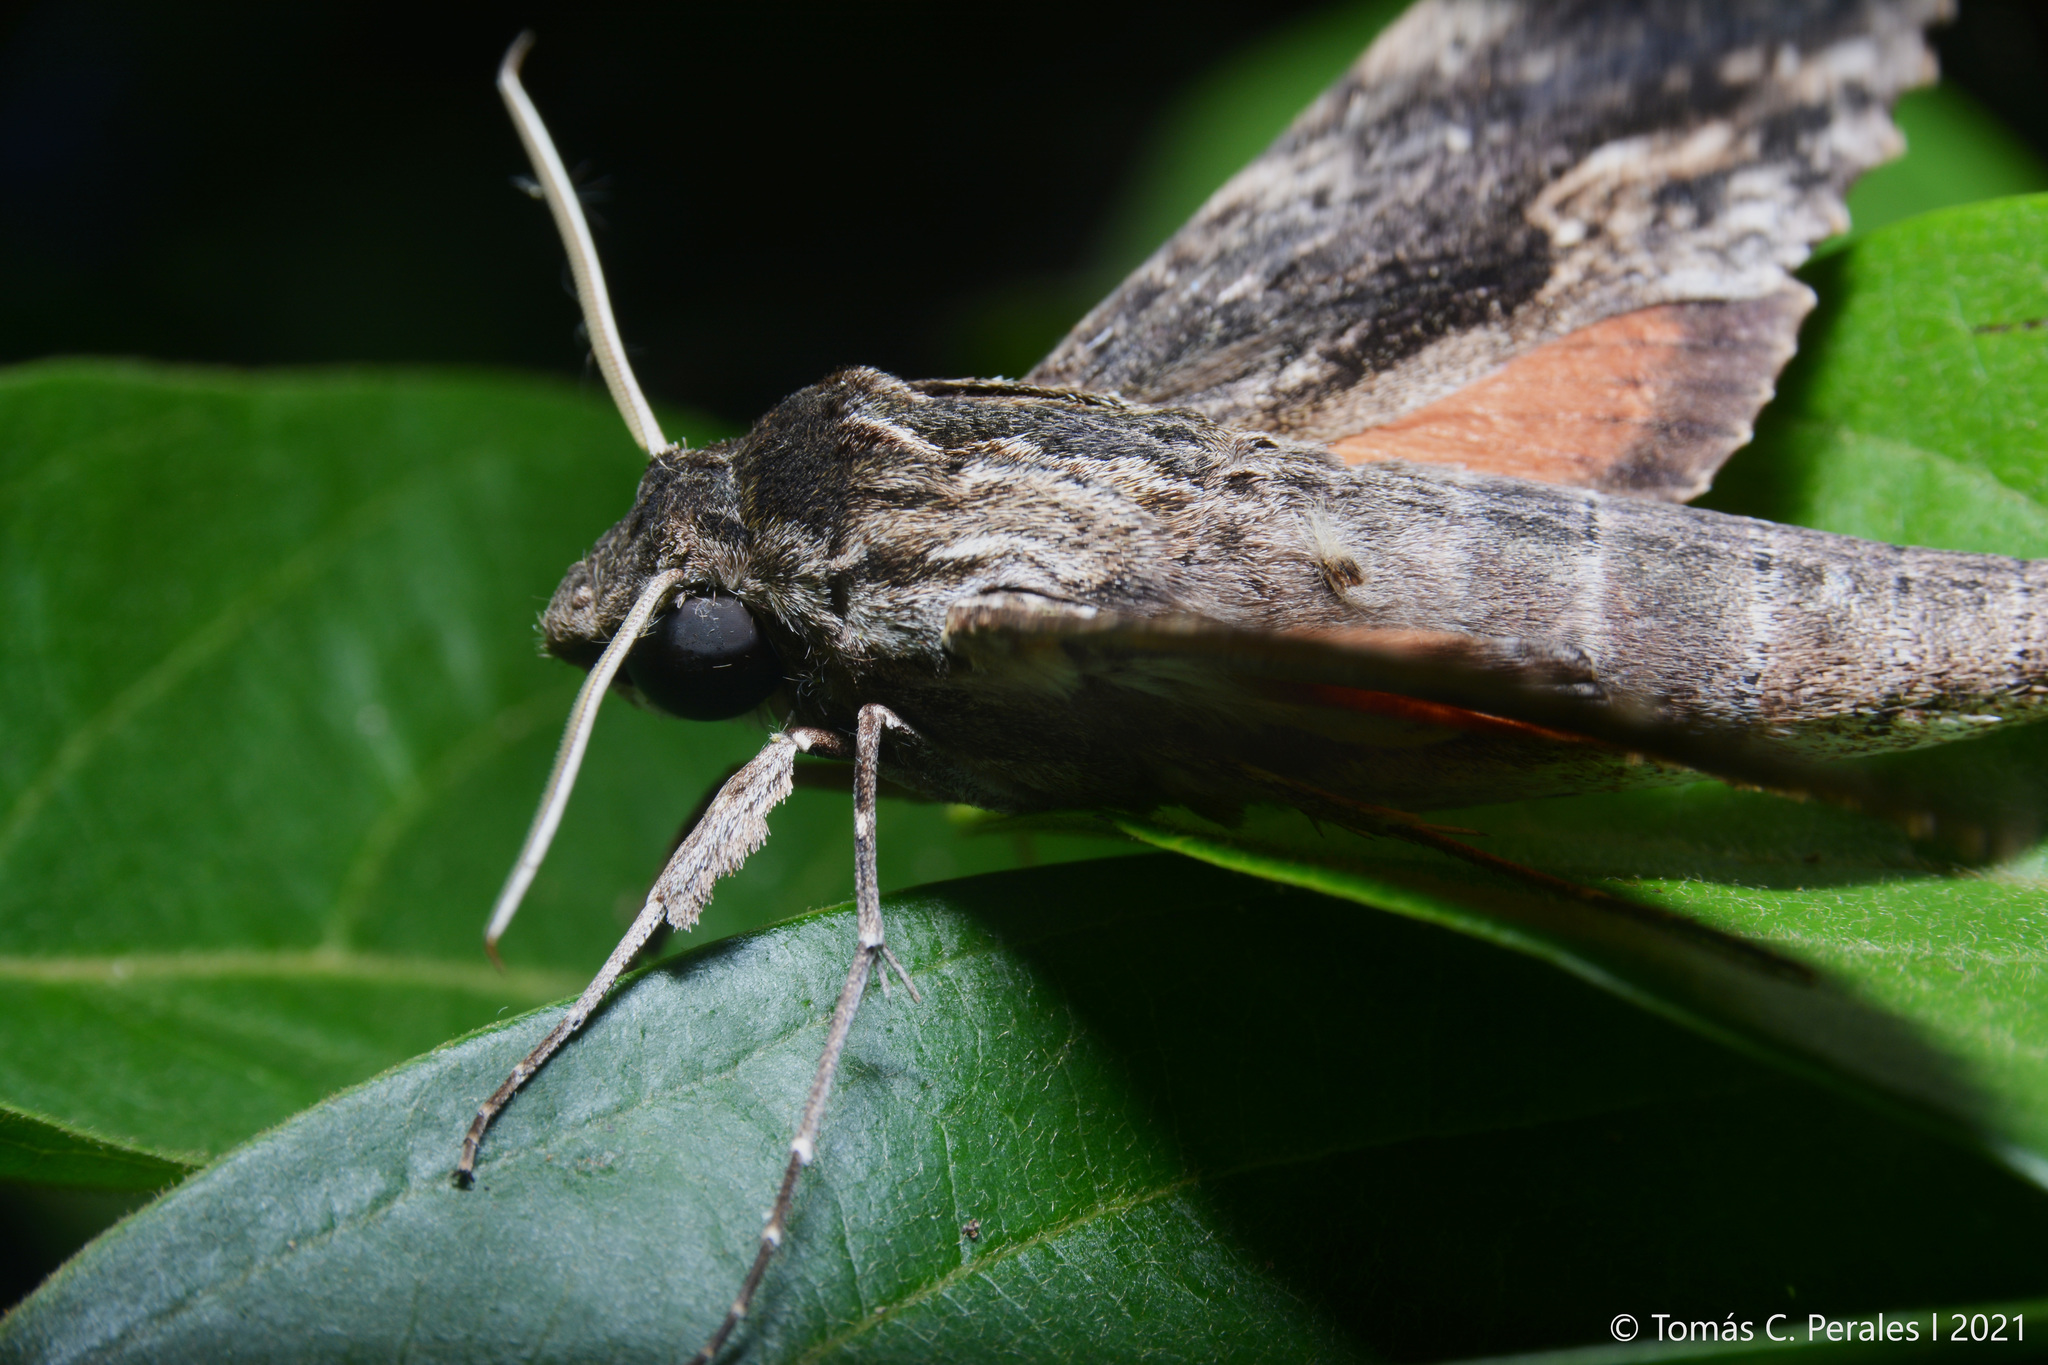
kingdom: Animalia
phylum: Arthropoda
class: Insecta
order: Lepidoptera
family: Sphingidae
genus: Erinnyis
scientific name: Erinnyis obscura
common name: Obscure sphinx
